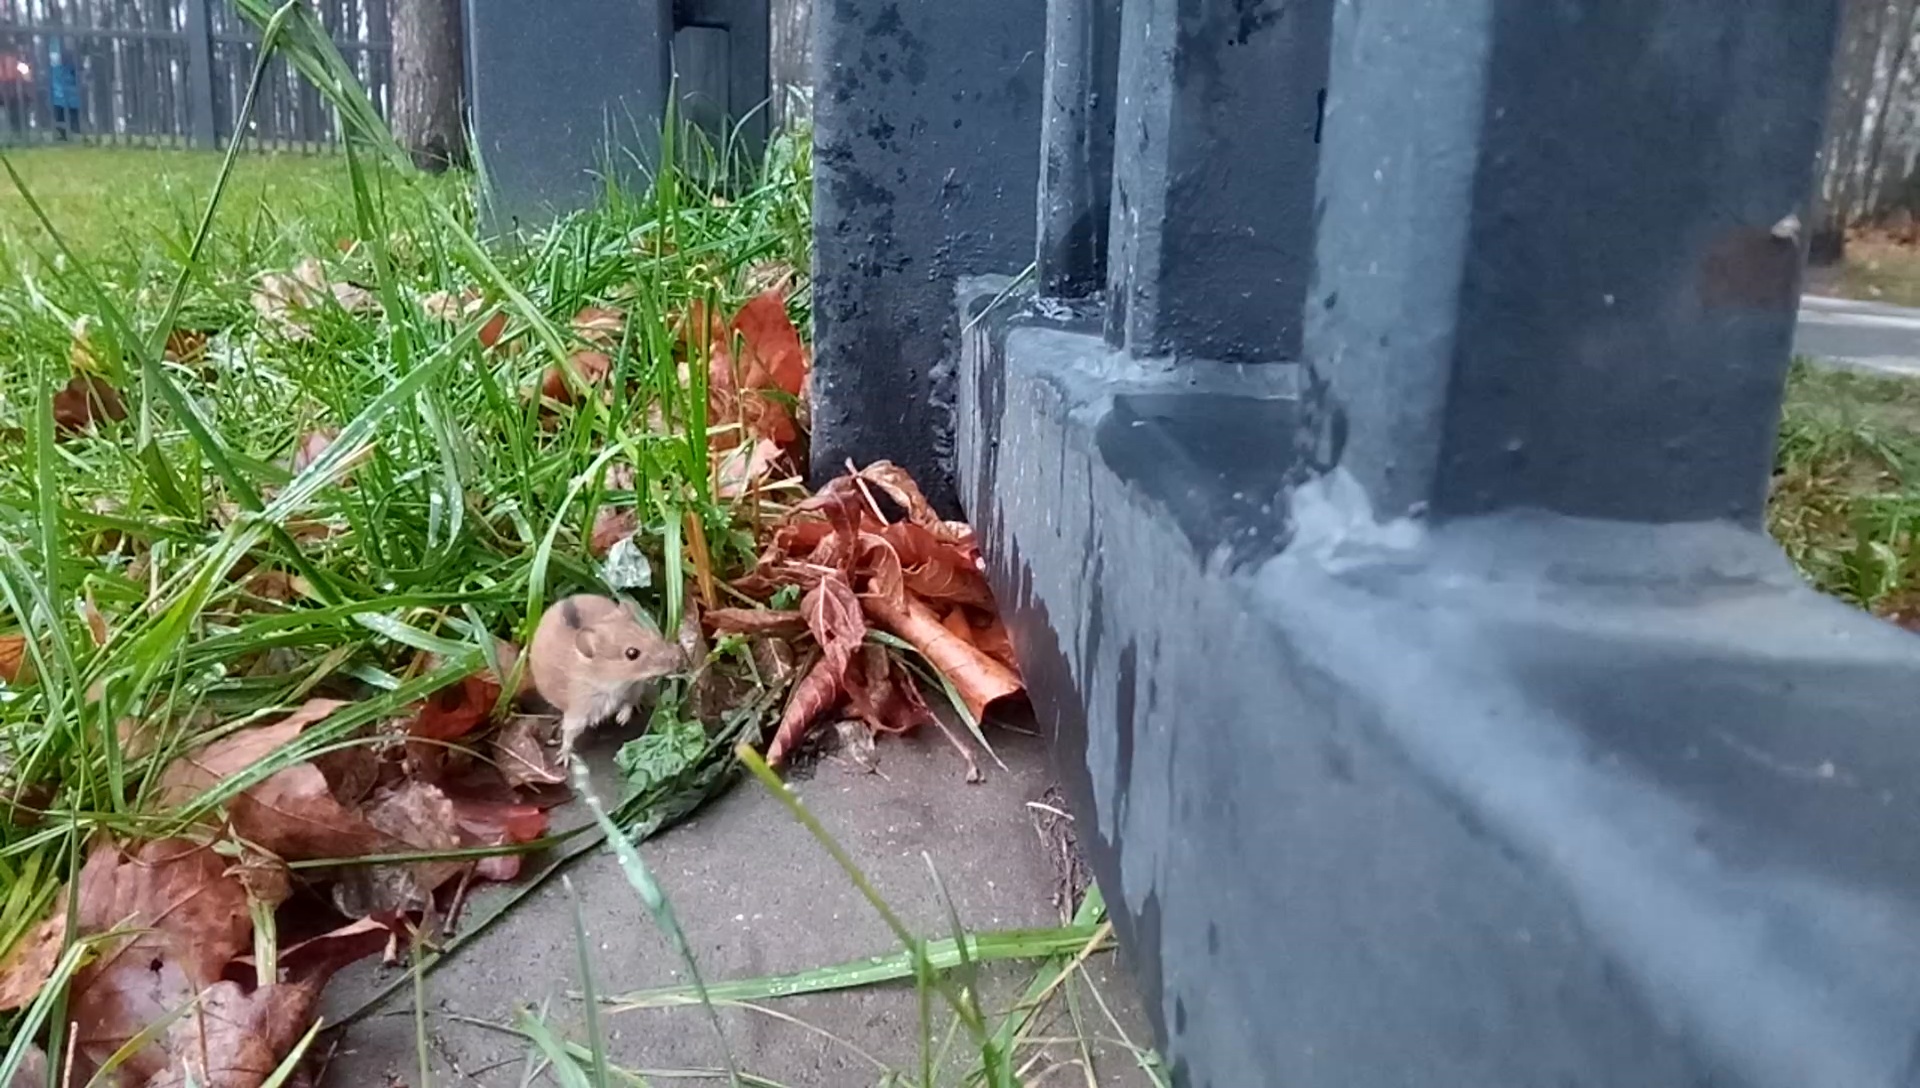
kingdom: Animalia
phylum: Chordata
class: Mammalia
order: Rodentia
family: Muridae
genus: Apodemus
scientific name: Apodemus agrarius
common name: Striped field mouse
